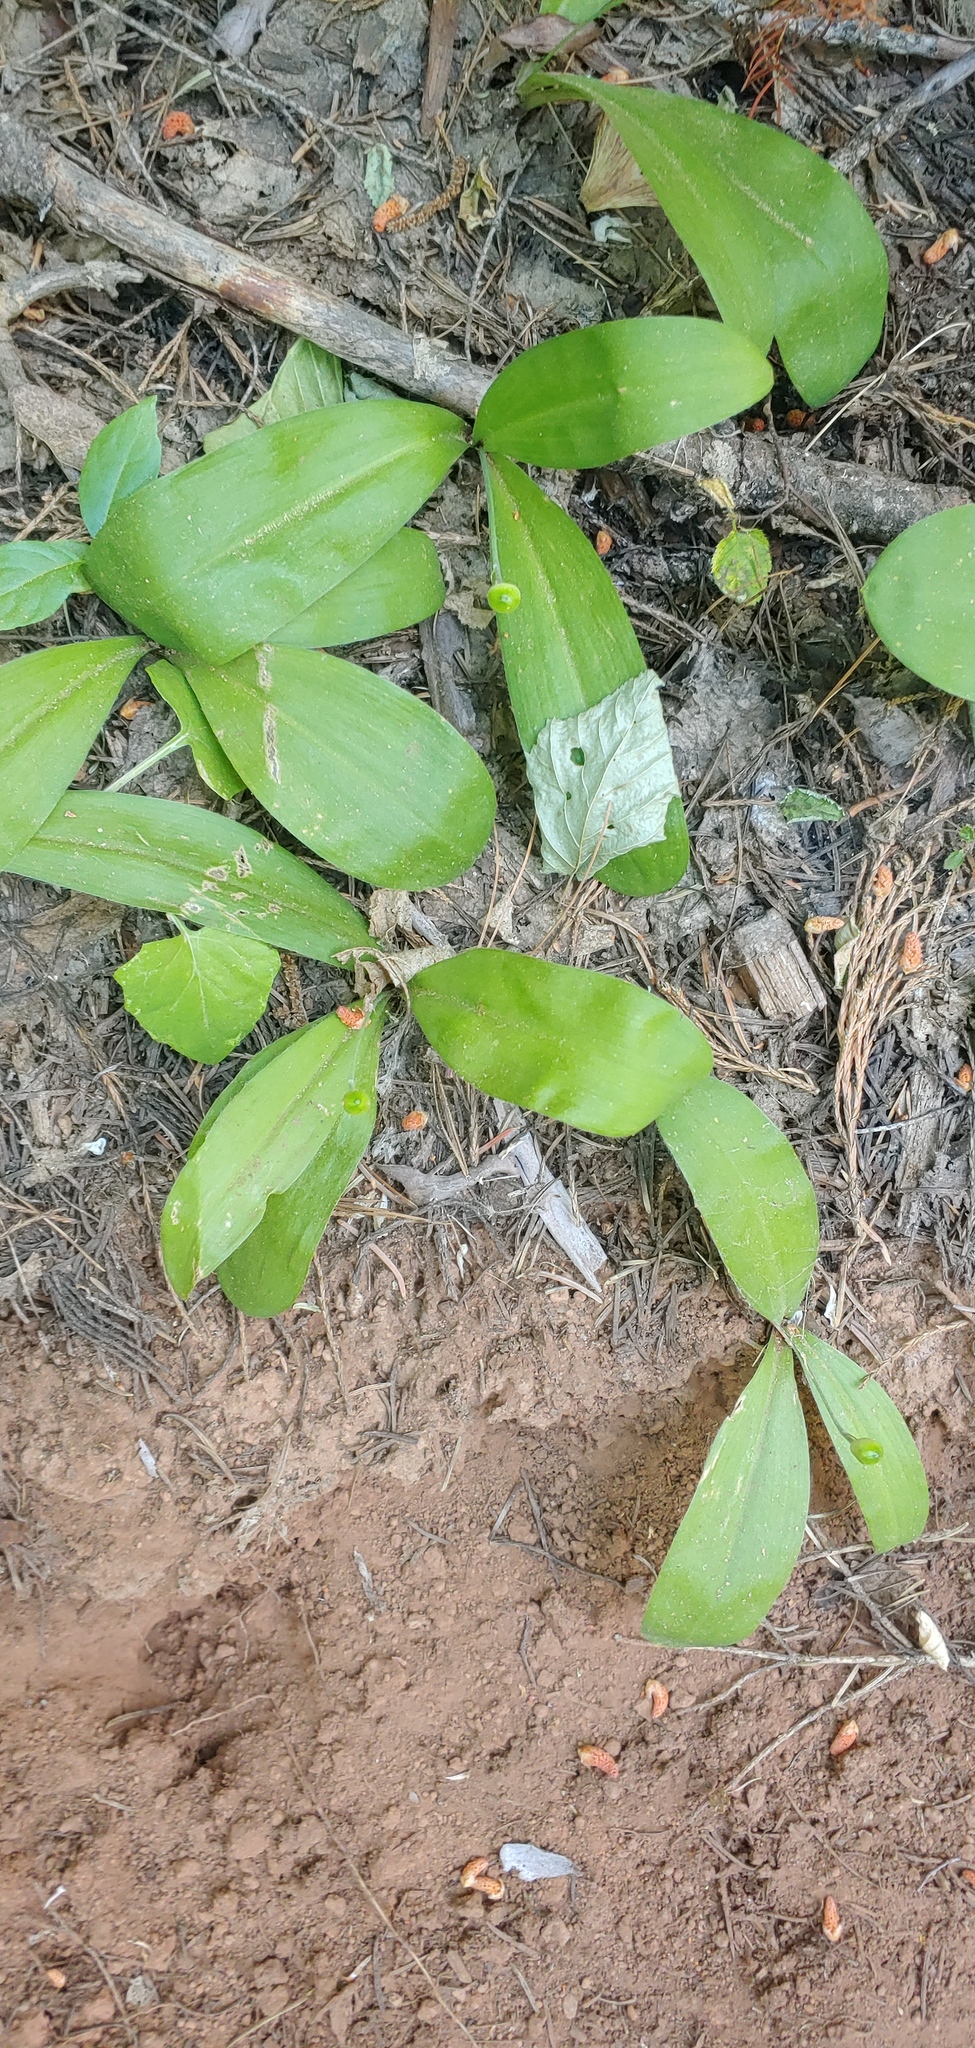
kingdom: Plantae
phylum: Tracheophyta
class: Liliopsida
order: Liliales
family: Liliaceae
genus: Clintonia
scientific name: Clintonia uniflora
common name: Queen's cup
